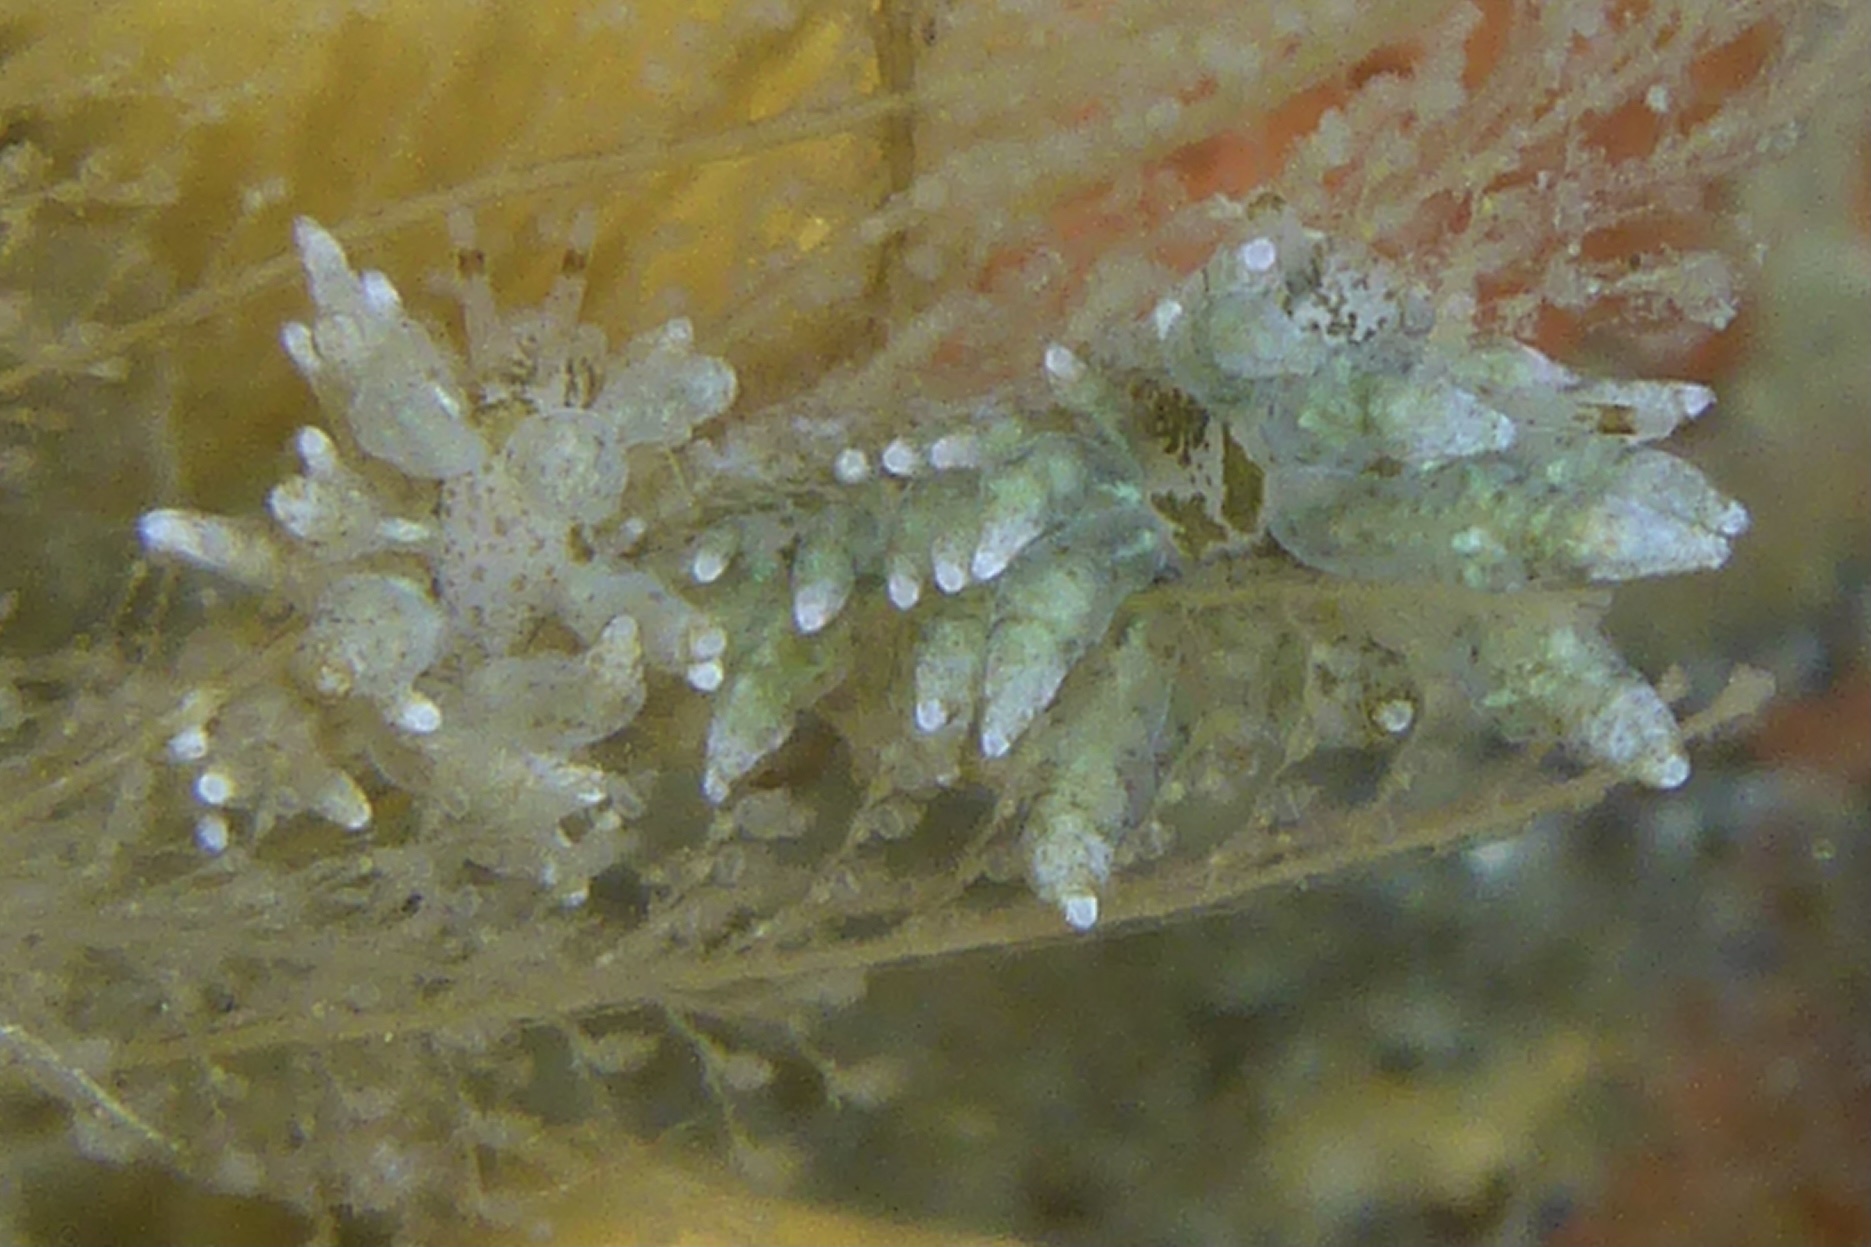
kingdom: Animalia
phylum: Mollusca
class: Gastropoda
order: Nudibranchia
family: Eubranchidae
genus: Eubranchus
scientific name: Eubranchus rustyus
